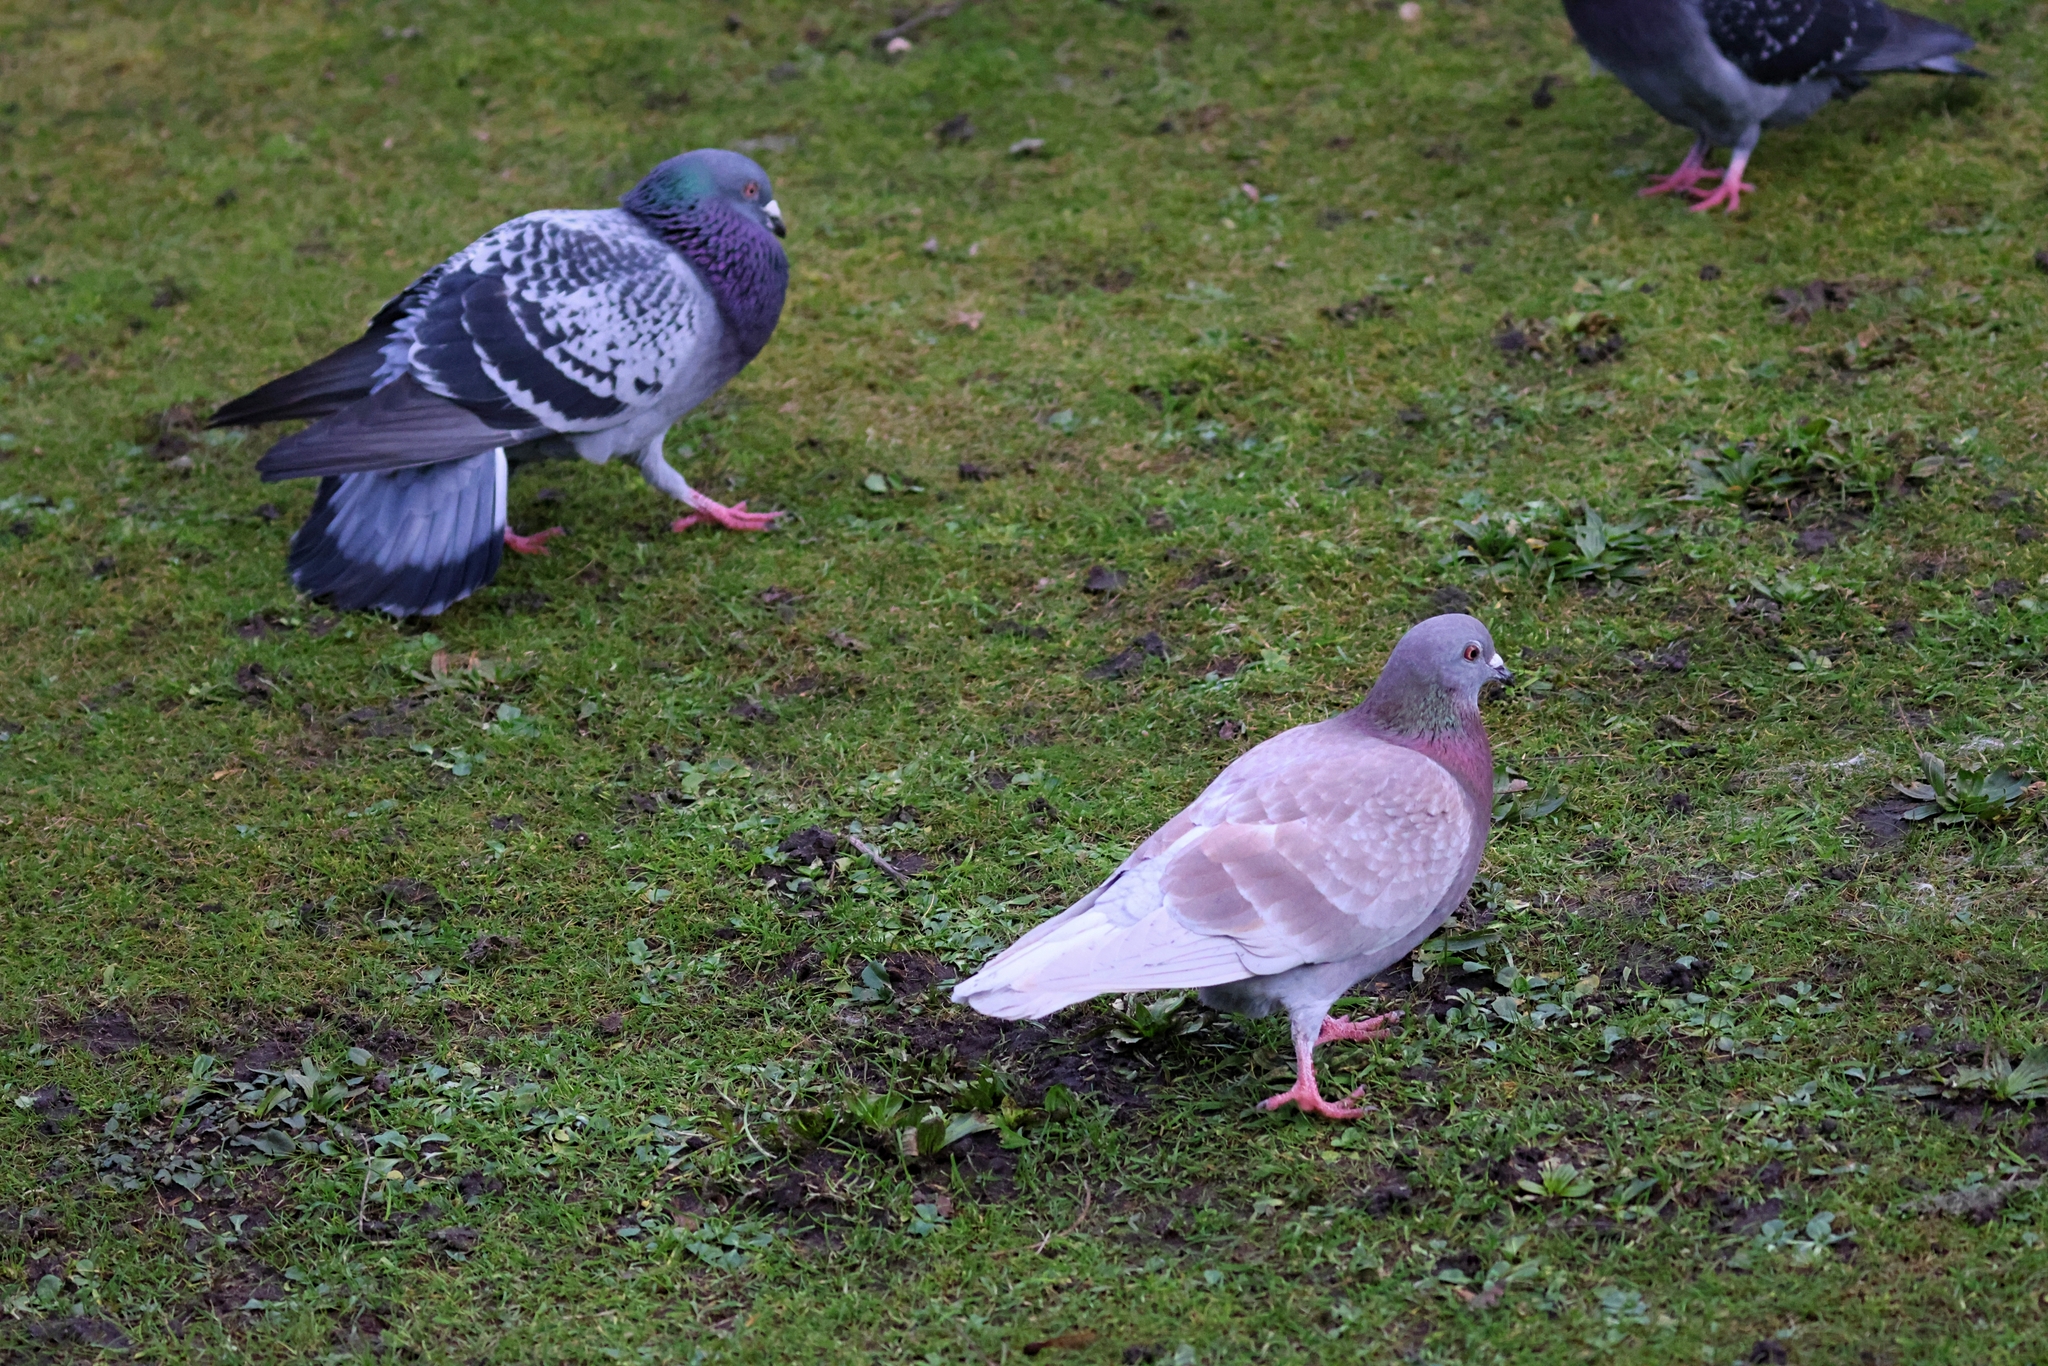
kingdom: Animalia
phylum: Chordata
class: Aves
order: Columbiformes
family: Columbidae
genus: Columba
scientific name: Columba livia
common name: Rock pigeon
